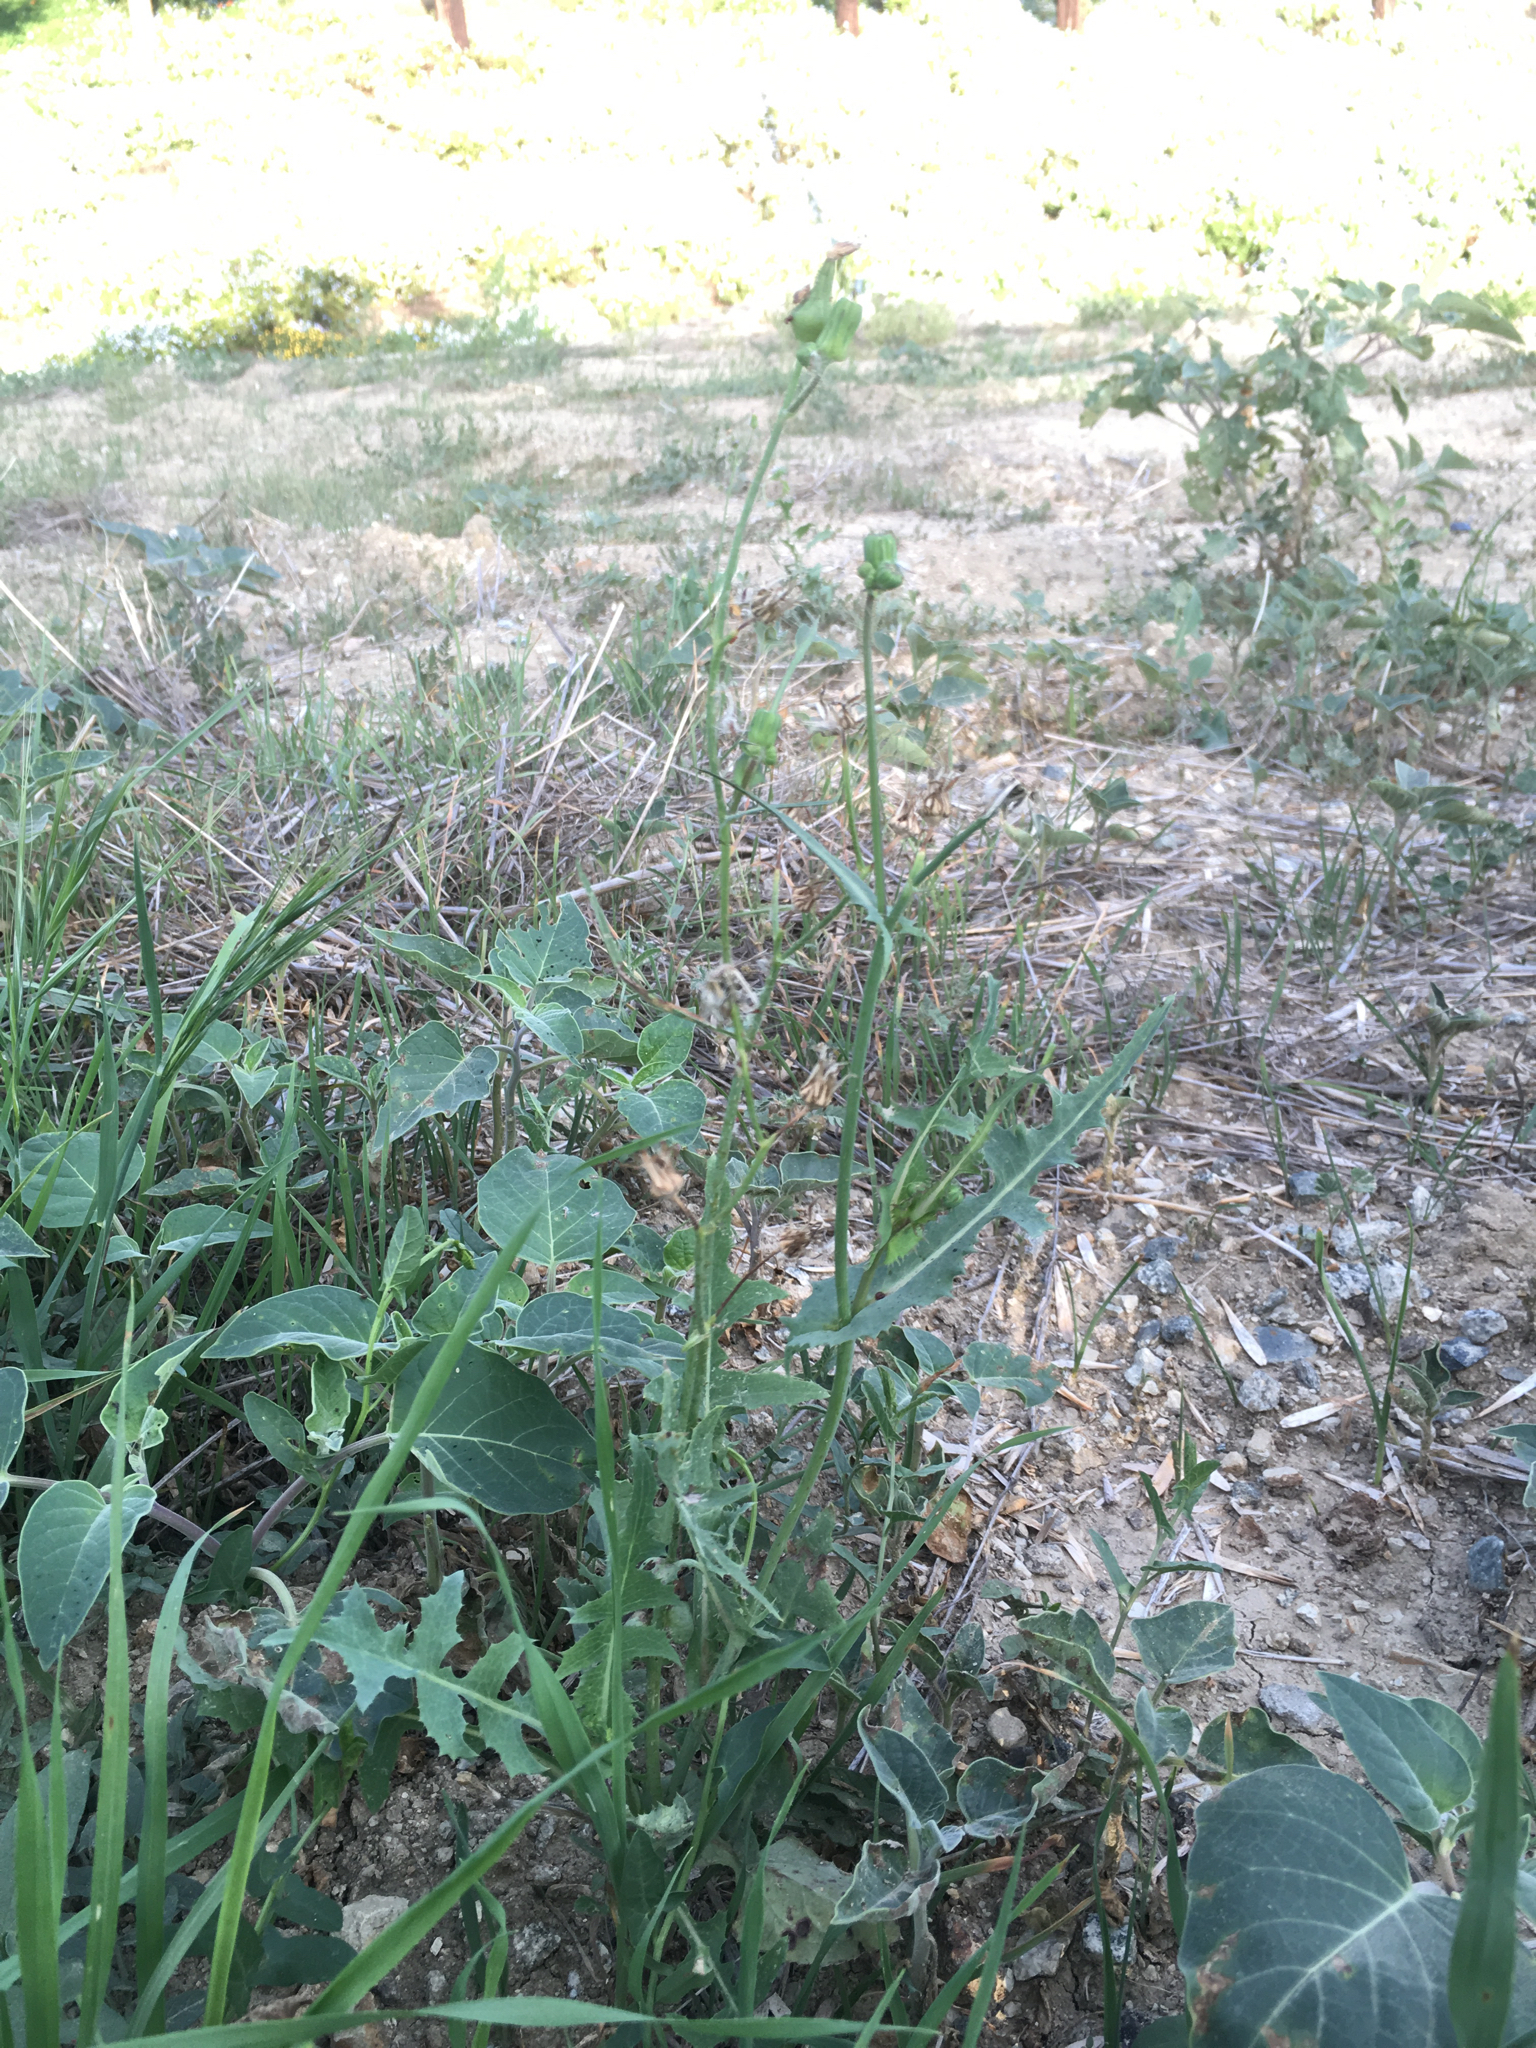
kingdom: Plantae
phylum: Tracheophyta
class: Magnoliopsida
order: Asterales
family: Asteraceae
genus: Sonchus
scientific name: Sonchus oleraceus
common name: Common sowthistle
